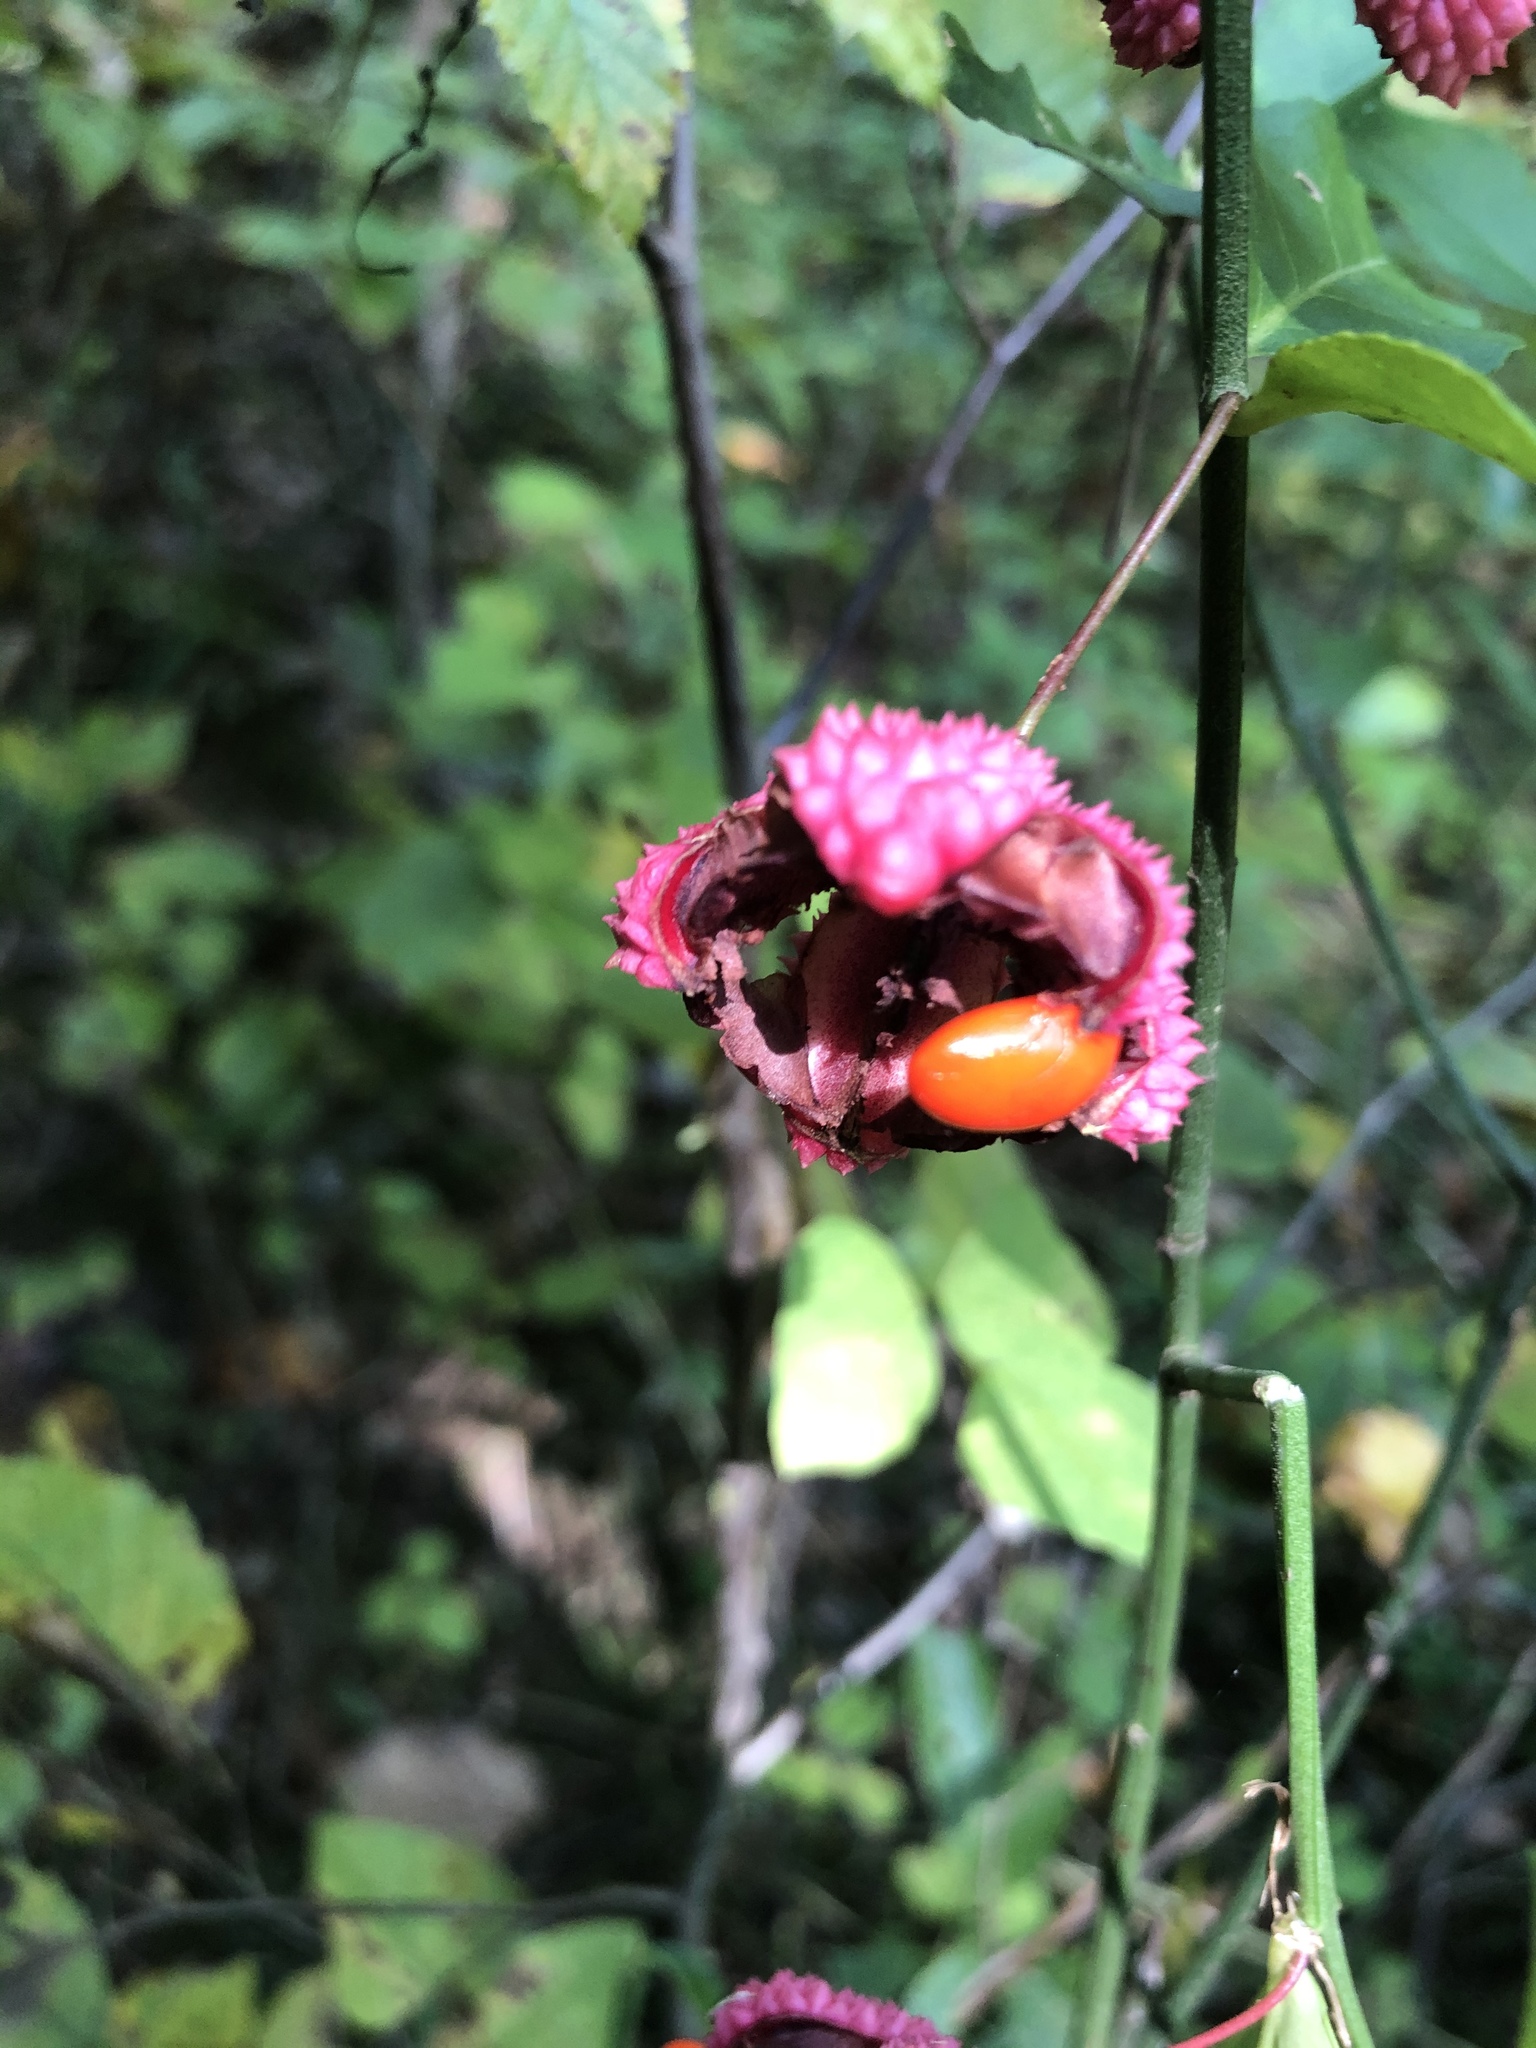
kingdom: Plantae
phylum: Tracheophyta
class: Magnoliopsida
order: Celastrales
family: Celastraceae
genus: Euonymus
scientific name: Euonymus americanus
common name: Bursting-heart
